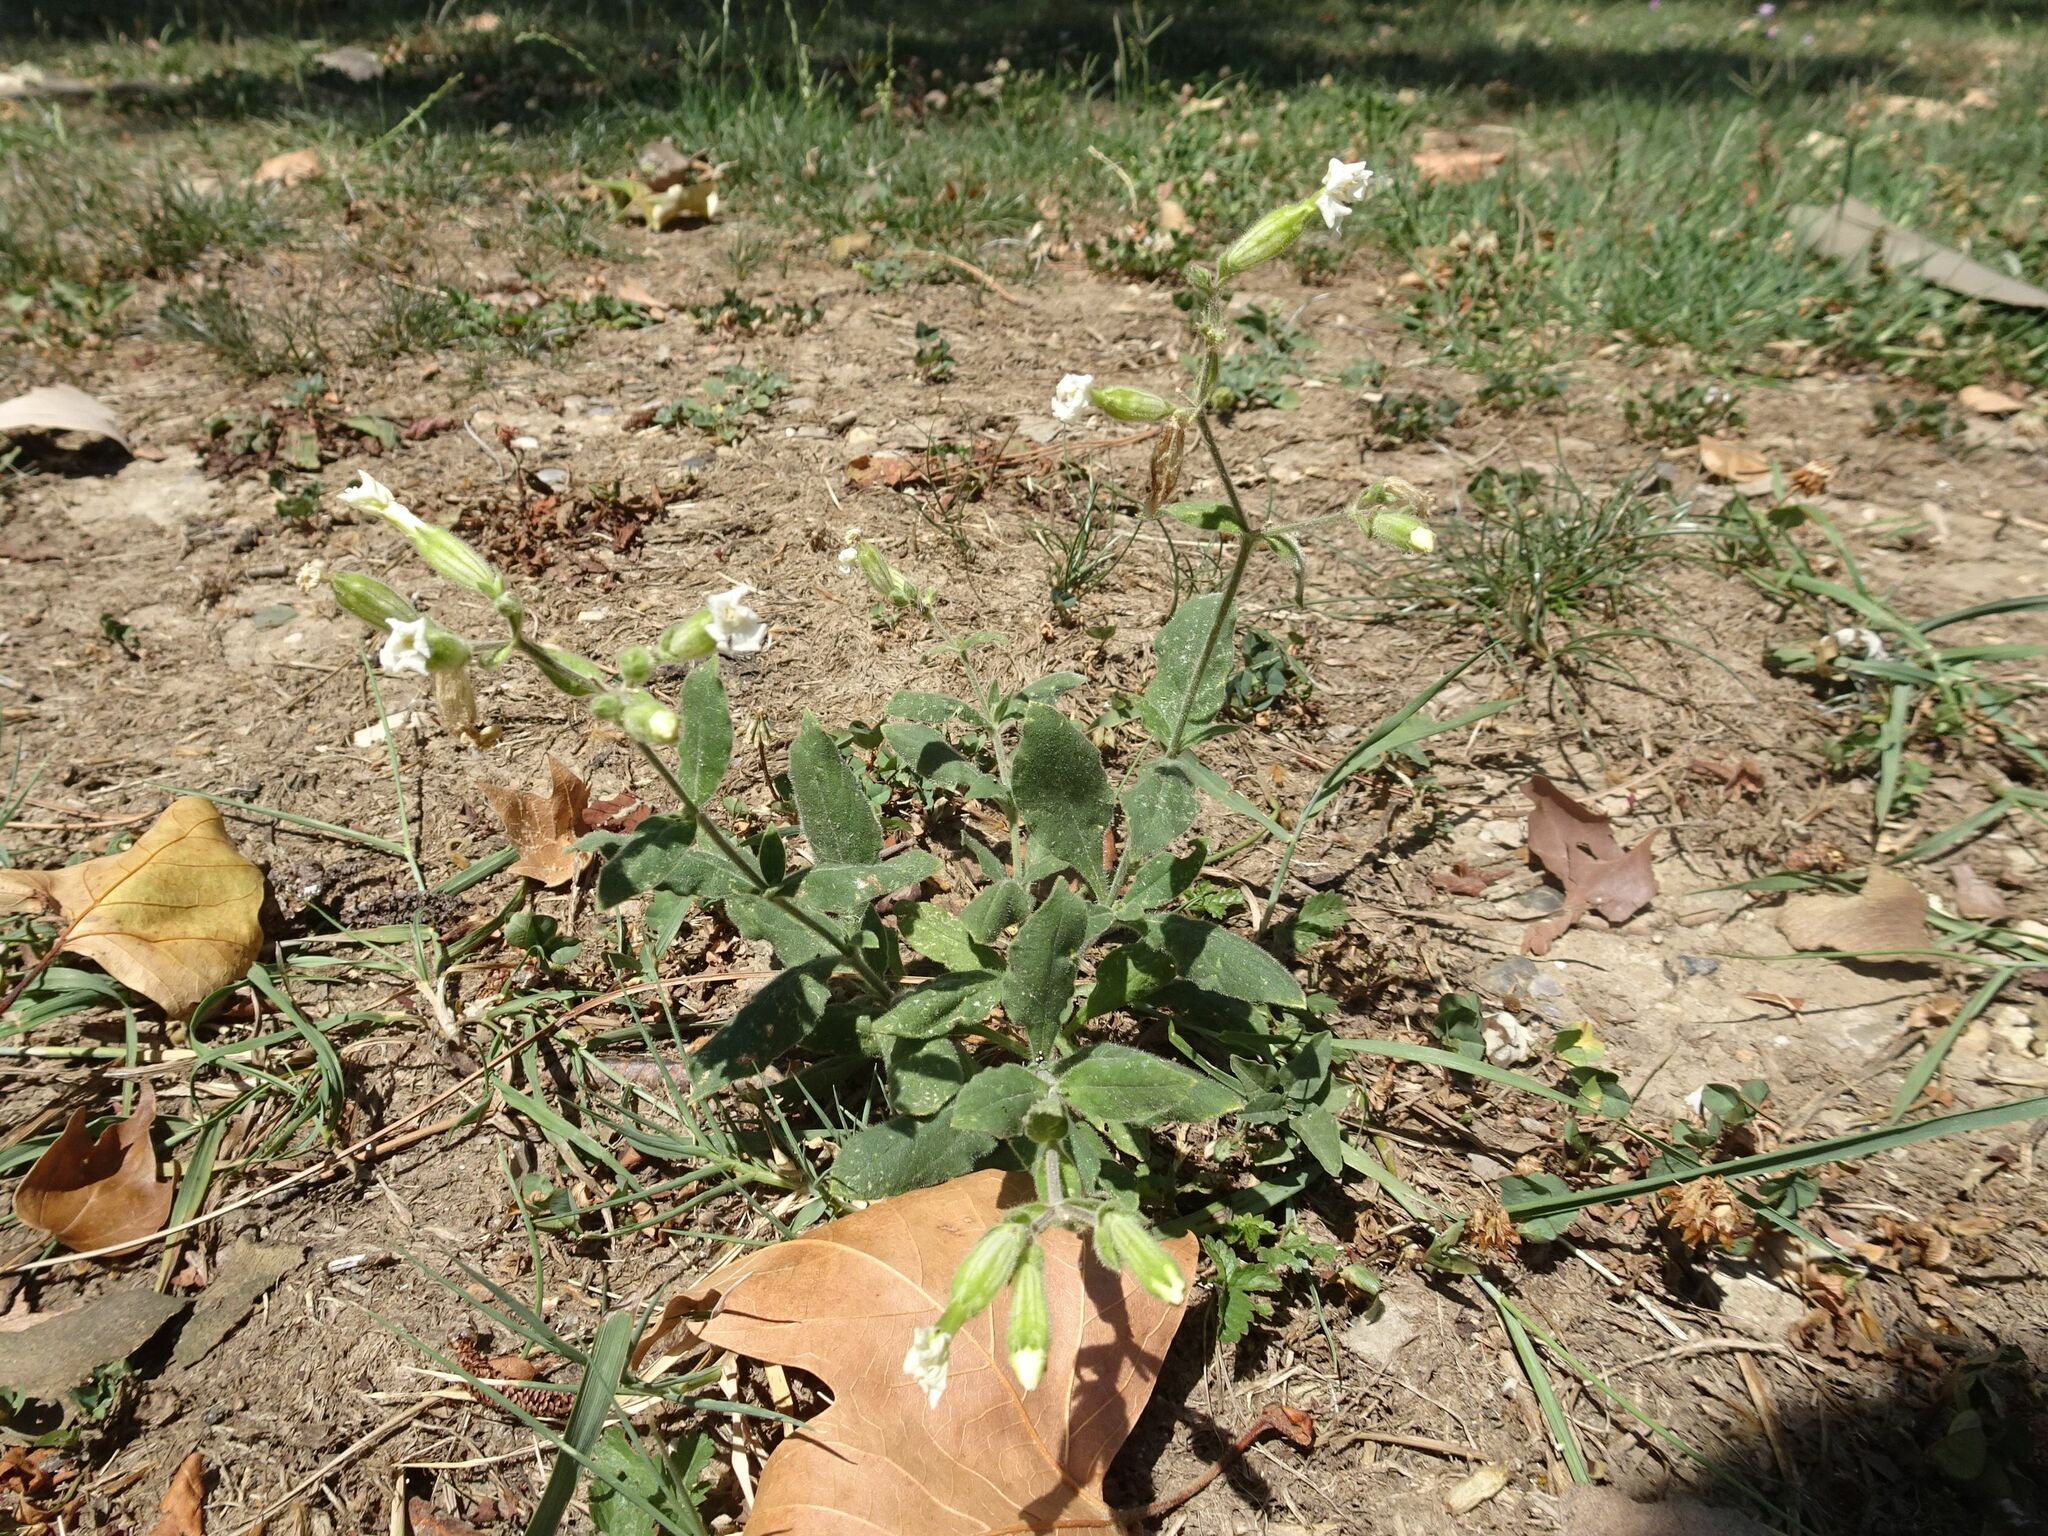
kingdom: Plantae
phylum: Tracheophyta
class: Magnoliopsida
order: Caryophyllales
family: Caryophyllaceae
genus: Silene
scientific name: Silene latifolia
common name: White campion
